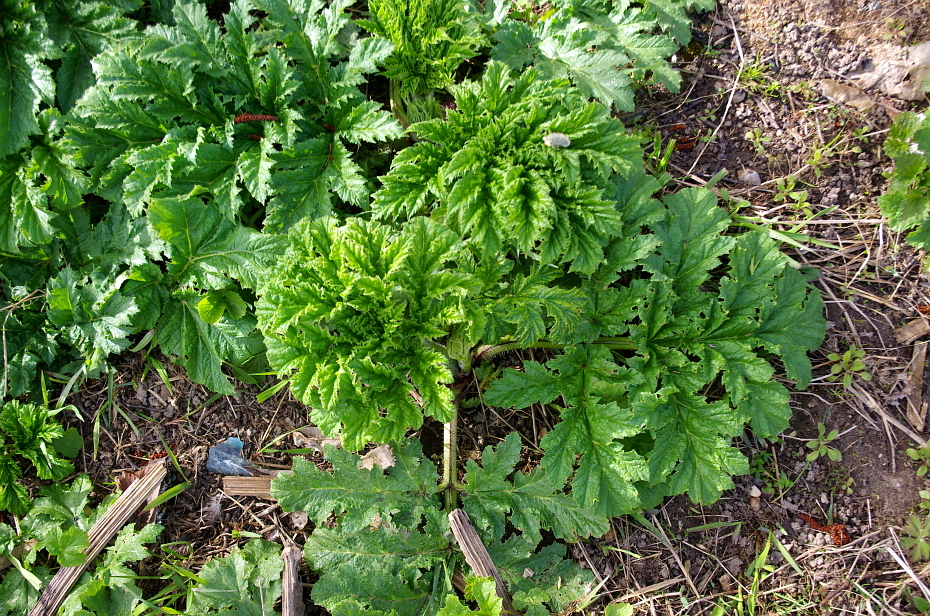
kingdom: Plantae
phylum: Tracheophyta
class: Magnoliopsida
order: Apiales
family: Apiaceae
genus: Heracleum
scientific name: Heracleum sosnowskyi
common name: Sosnowsky's hogweed
